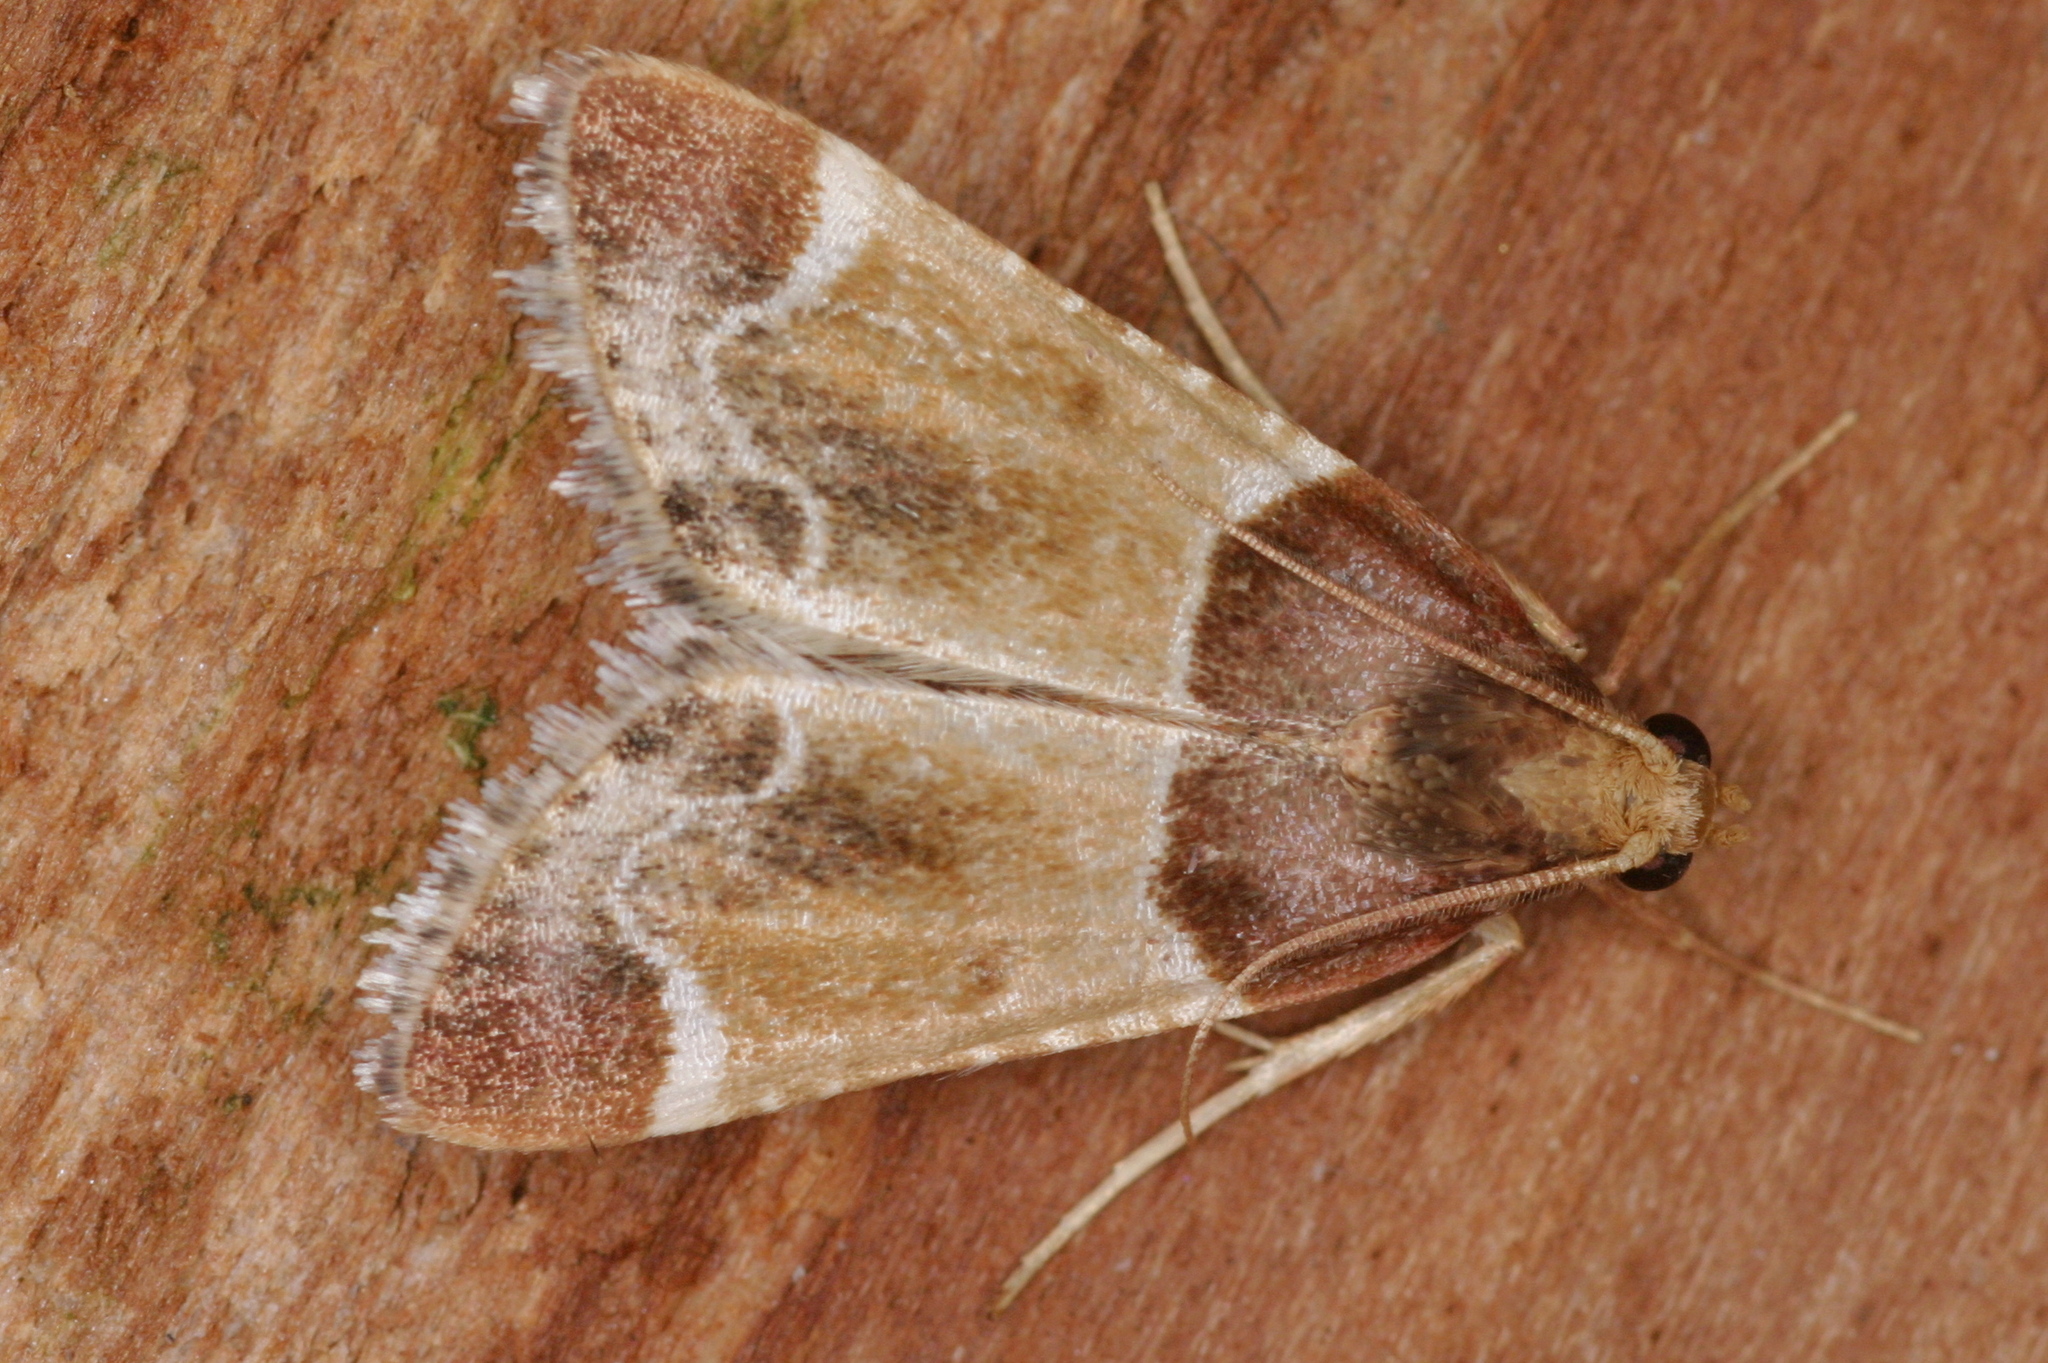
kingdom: Animalia
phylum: Arthropoda
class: Insecta
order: Lepidoptera
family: Pyralidae
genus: Pyralis
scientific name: Pyralis farinalis
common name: Meal moth
